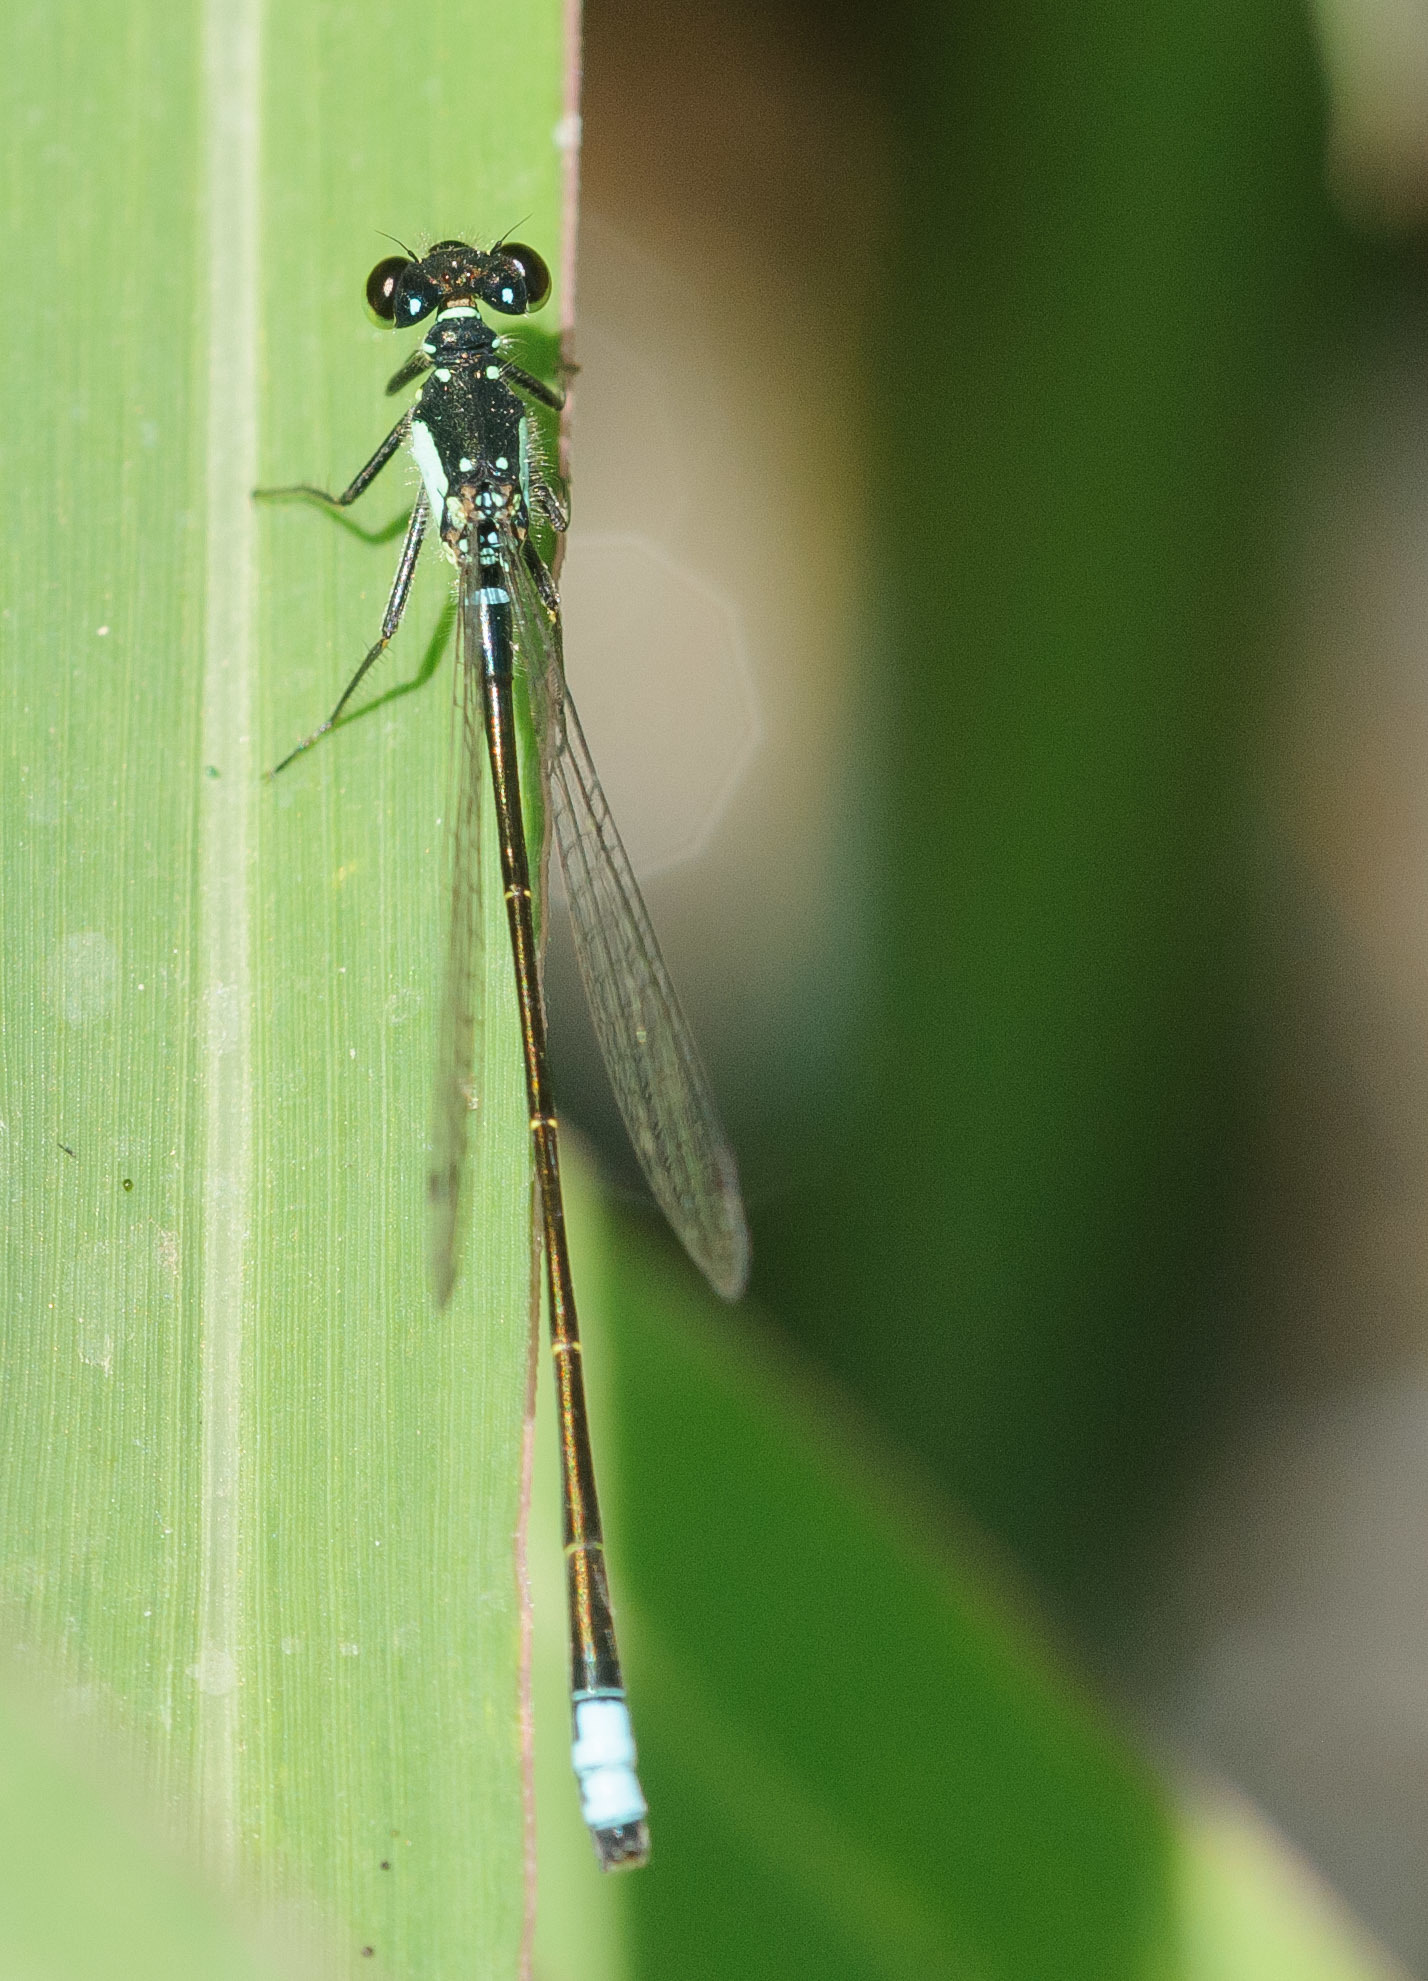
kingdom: Animalia
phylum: Arthropoda
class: Insecta
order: Odonata
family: Coenagrionidae
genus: Ischnura
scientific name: Ischnura cervula
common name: Pacific forktail
